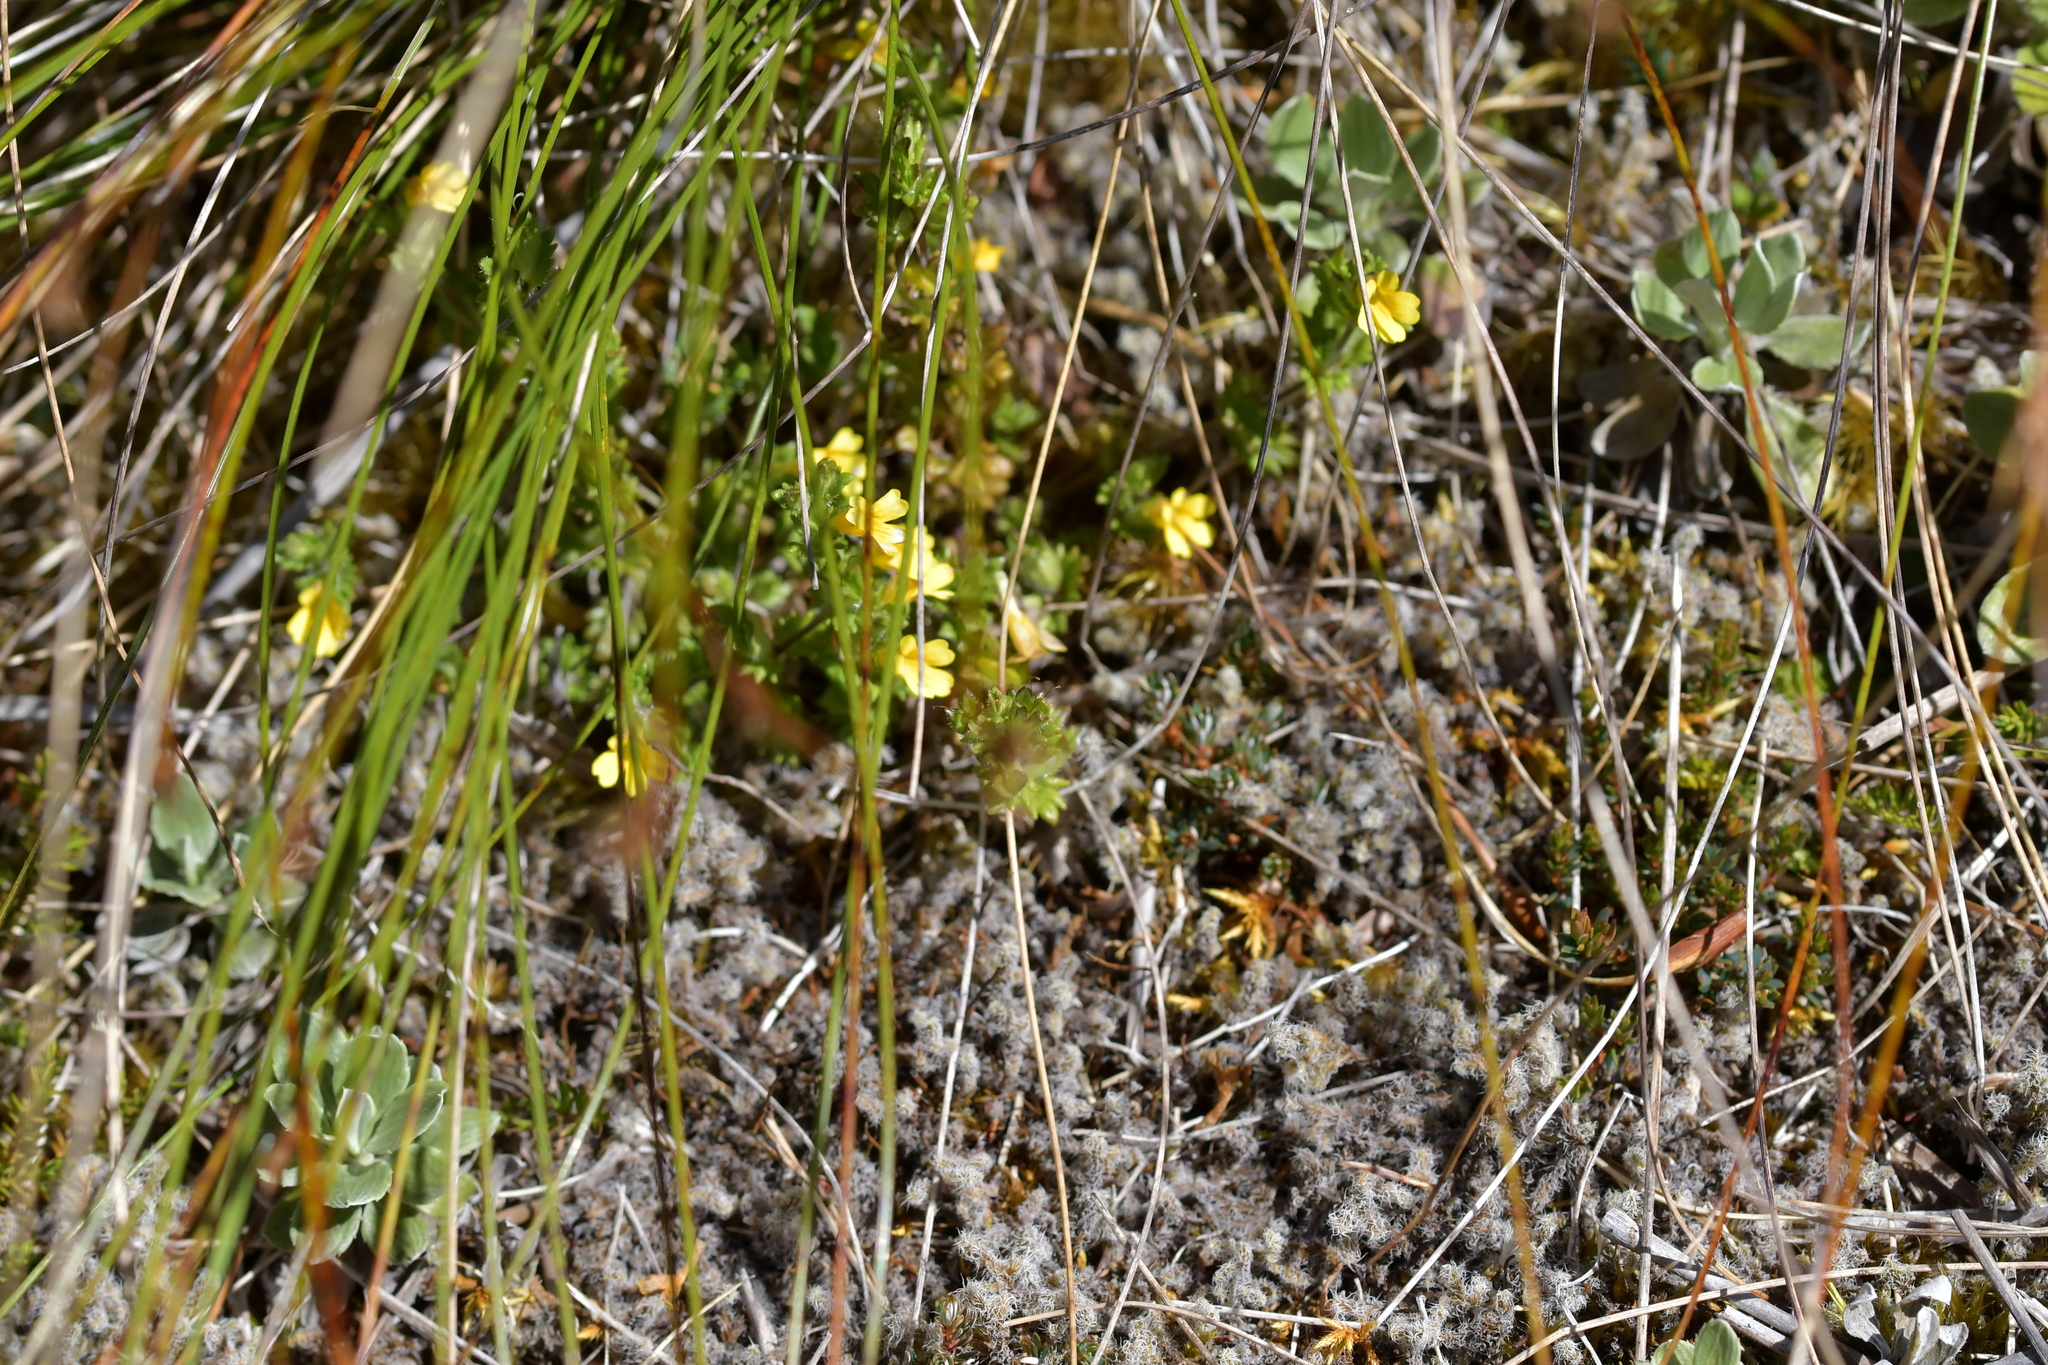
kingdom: Plantae
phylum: Tracheophyta
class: Magnoliopsida
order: Lamiales
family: Orobanchaceae
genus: Euphrasia
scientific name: Euphrasia cockayneana
